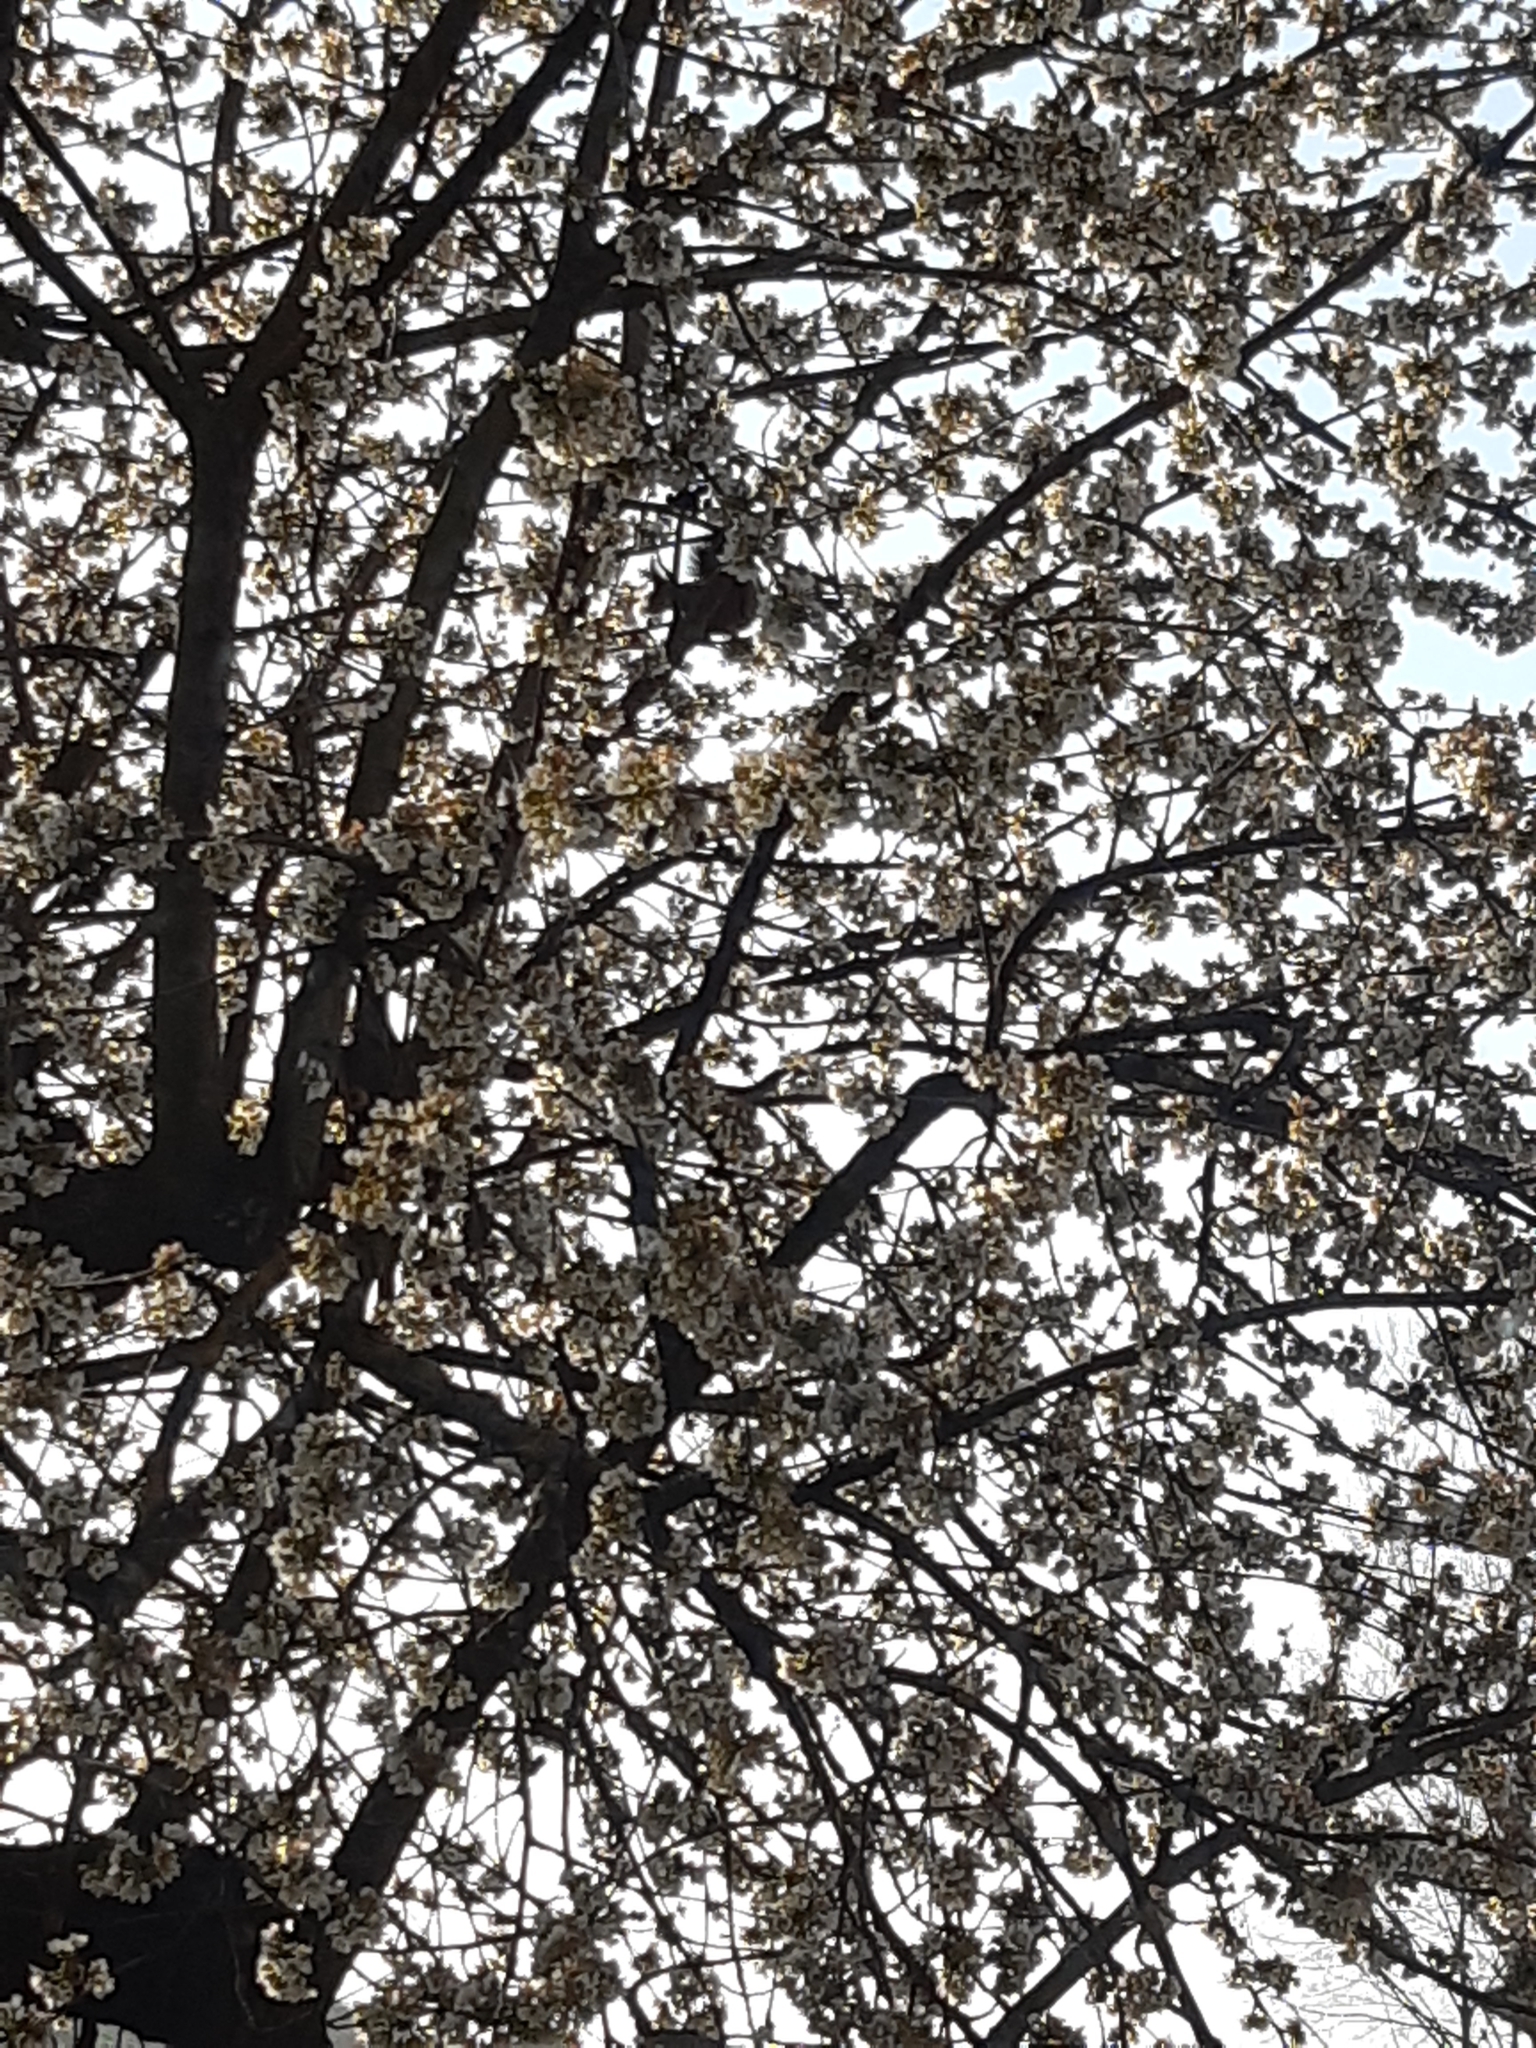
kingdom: Animalia
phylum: Chordata
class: Mammalia
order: Rodentia
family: Sciuridae
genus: Sciurus
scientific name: Sciurus vulgaris
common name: Eurasian red squirrel
